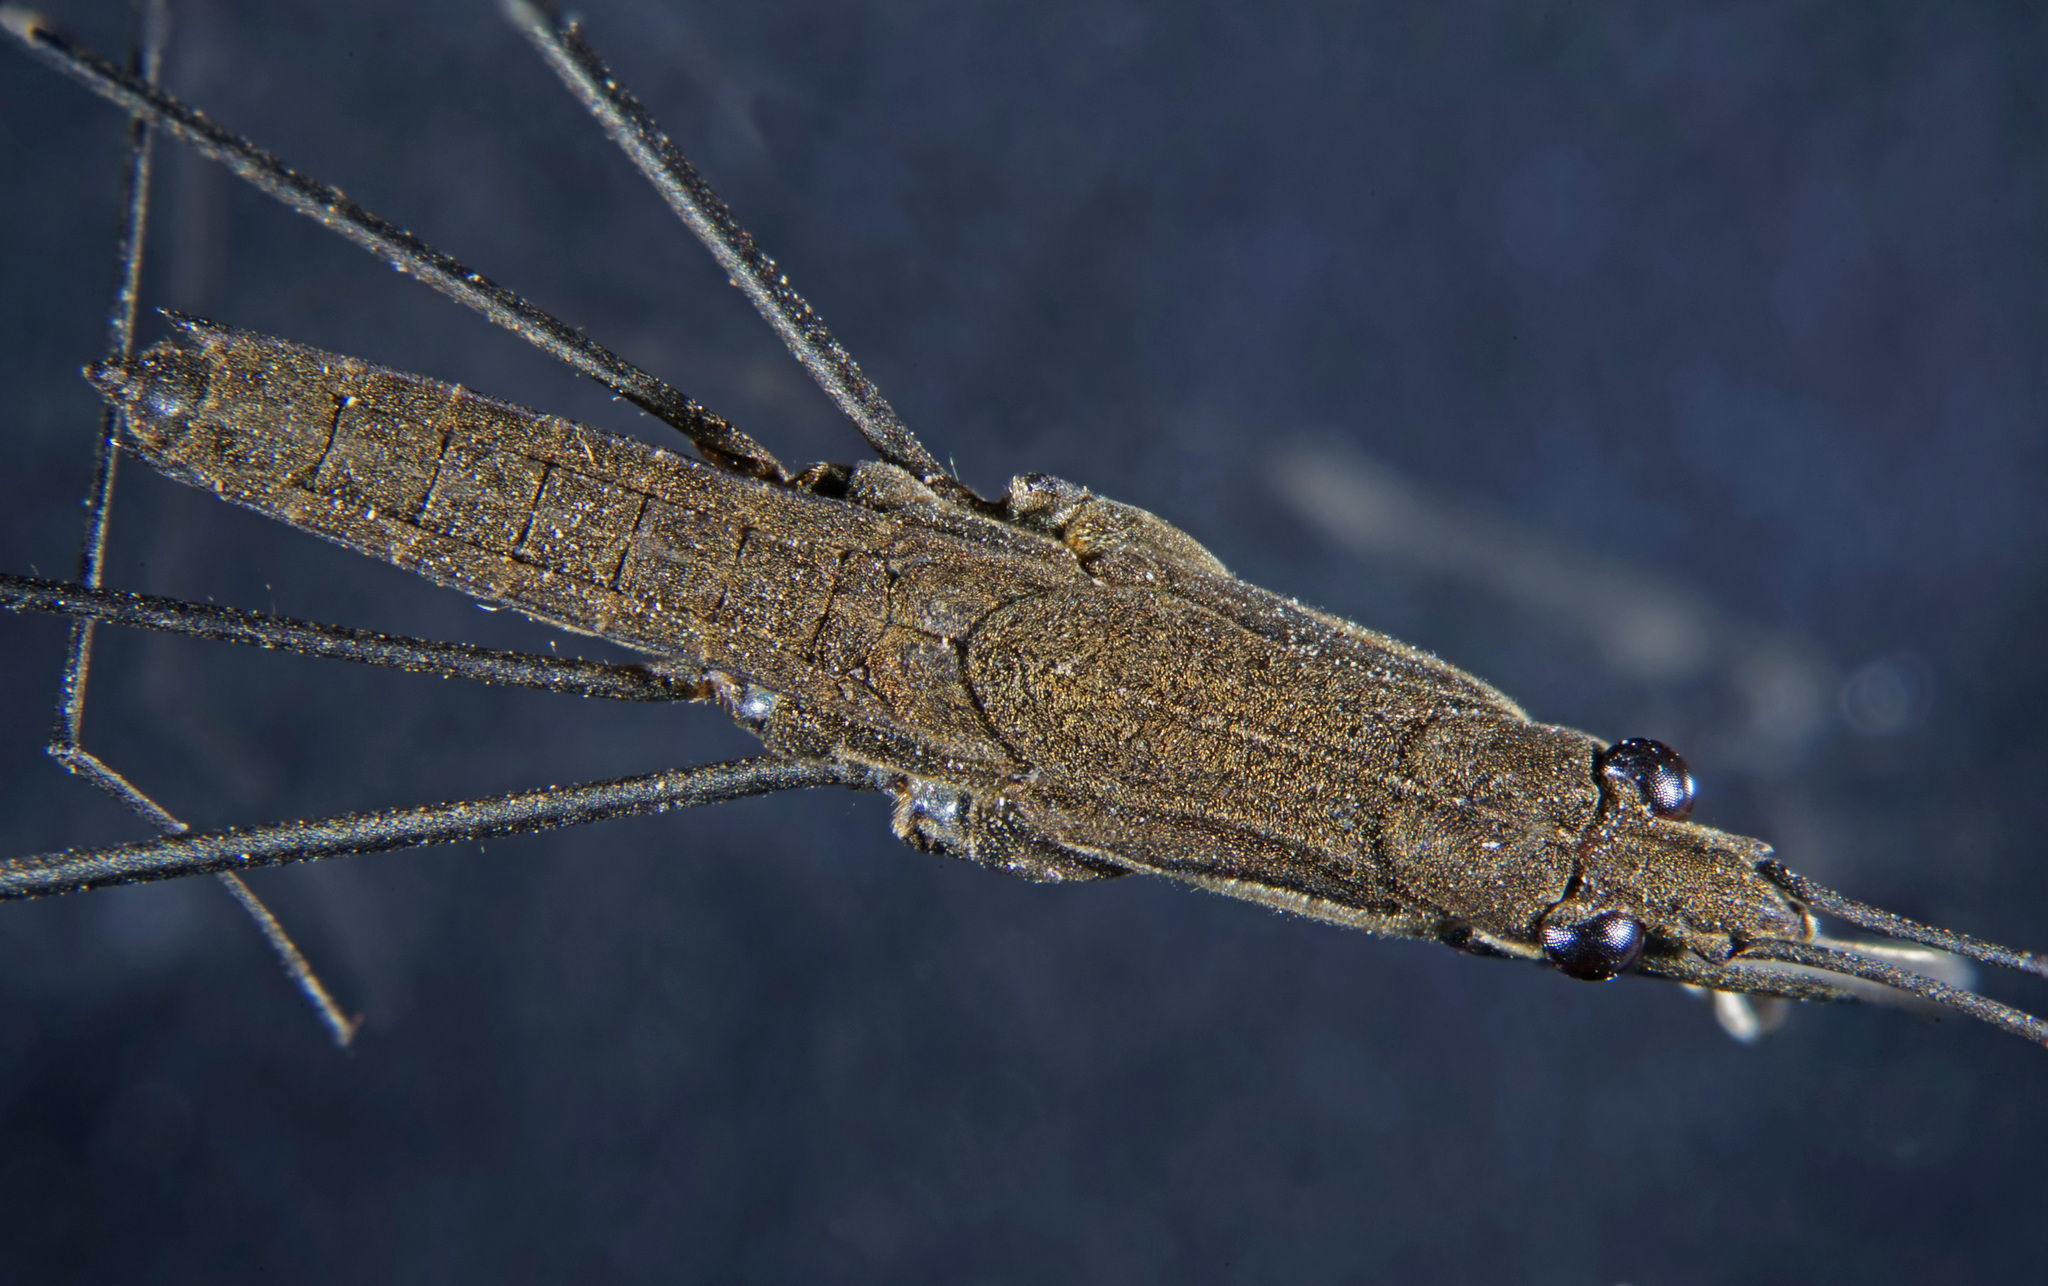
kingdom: Animalia
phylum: Arthropoda
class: Insecta
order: Hemiptera
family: Gerridae
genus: Aquarius
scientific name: Aquarius najas
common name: River skater
